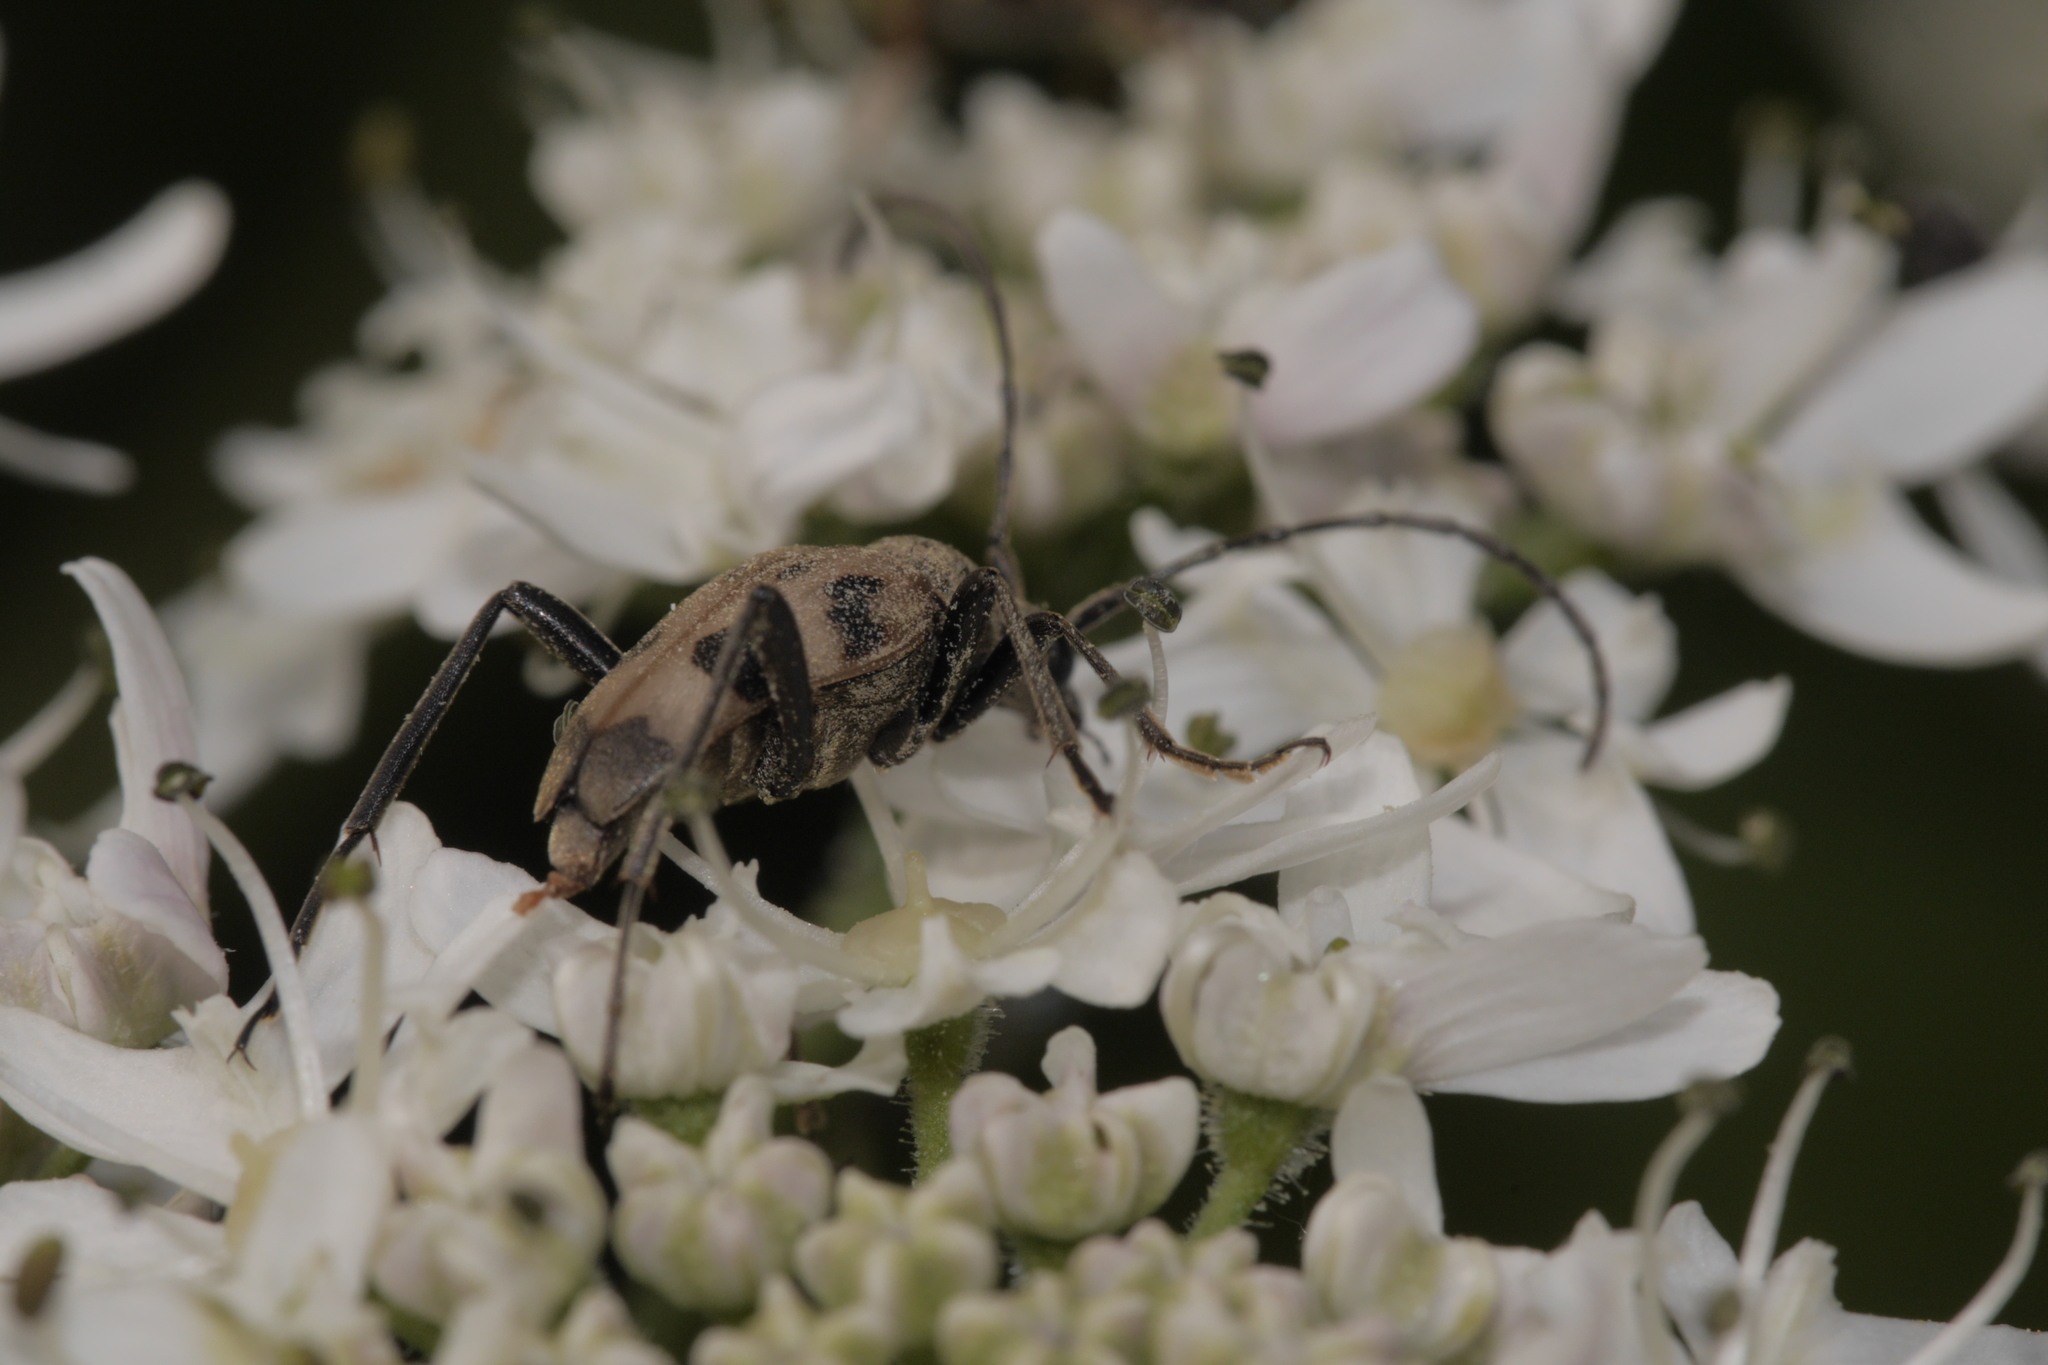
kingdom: Animalia
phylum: Arthropoda
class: Insecta
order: Coleoptera
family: Cerambycidae
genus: Pachytodes
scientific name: Pachytodes cerambyciformis
